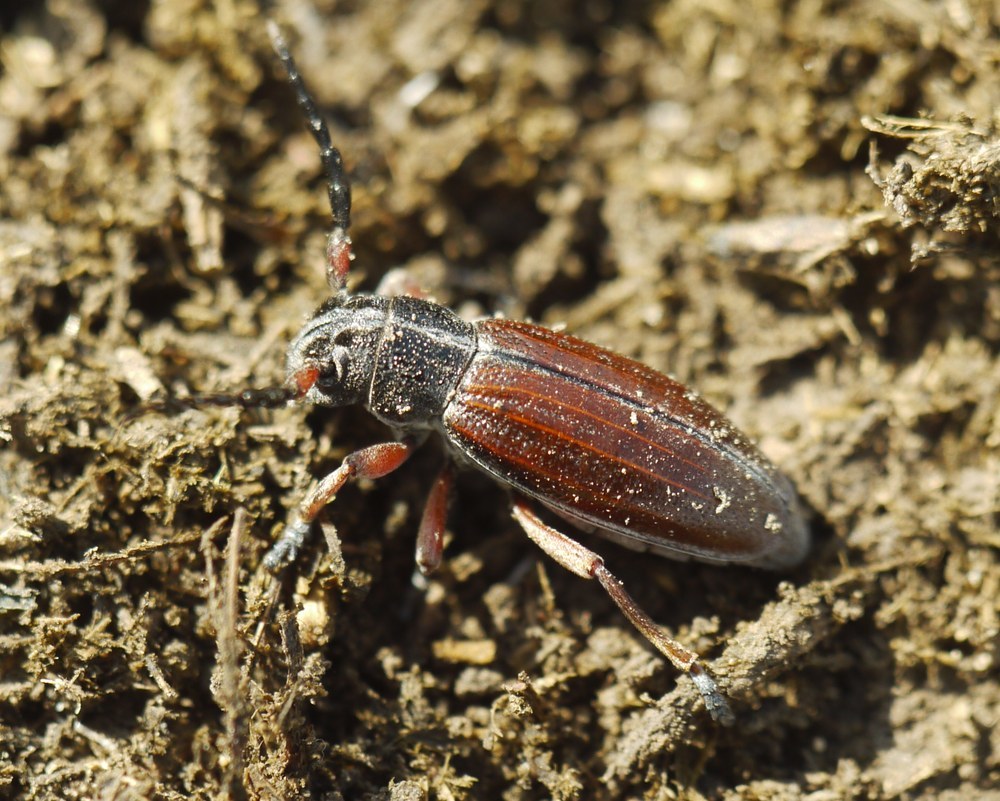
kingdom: Animalia
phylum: Arthropoda
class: Insecta
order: Coleoptera
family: Cerambycidae
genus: Dorcadion
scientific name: Dorcadion fulvum
